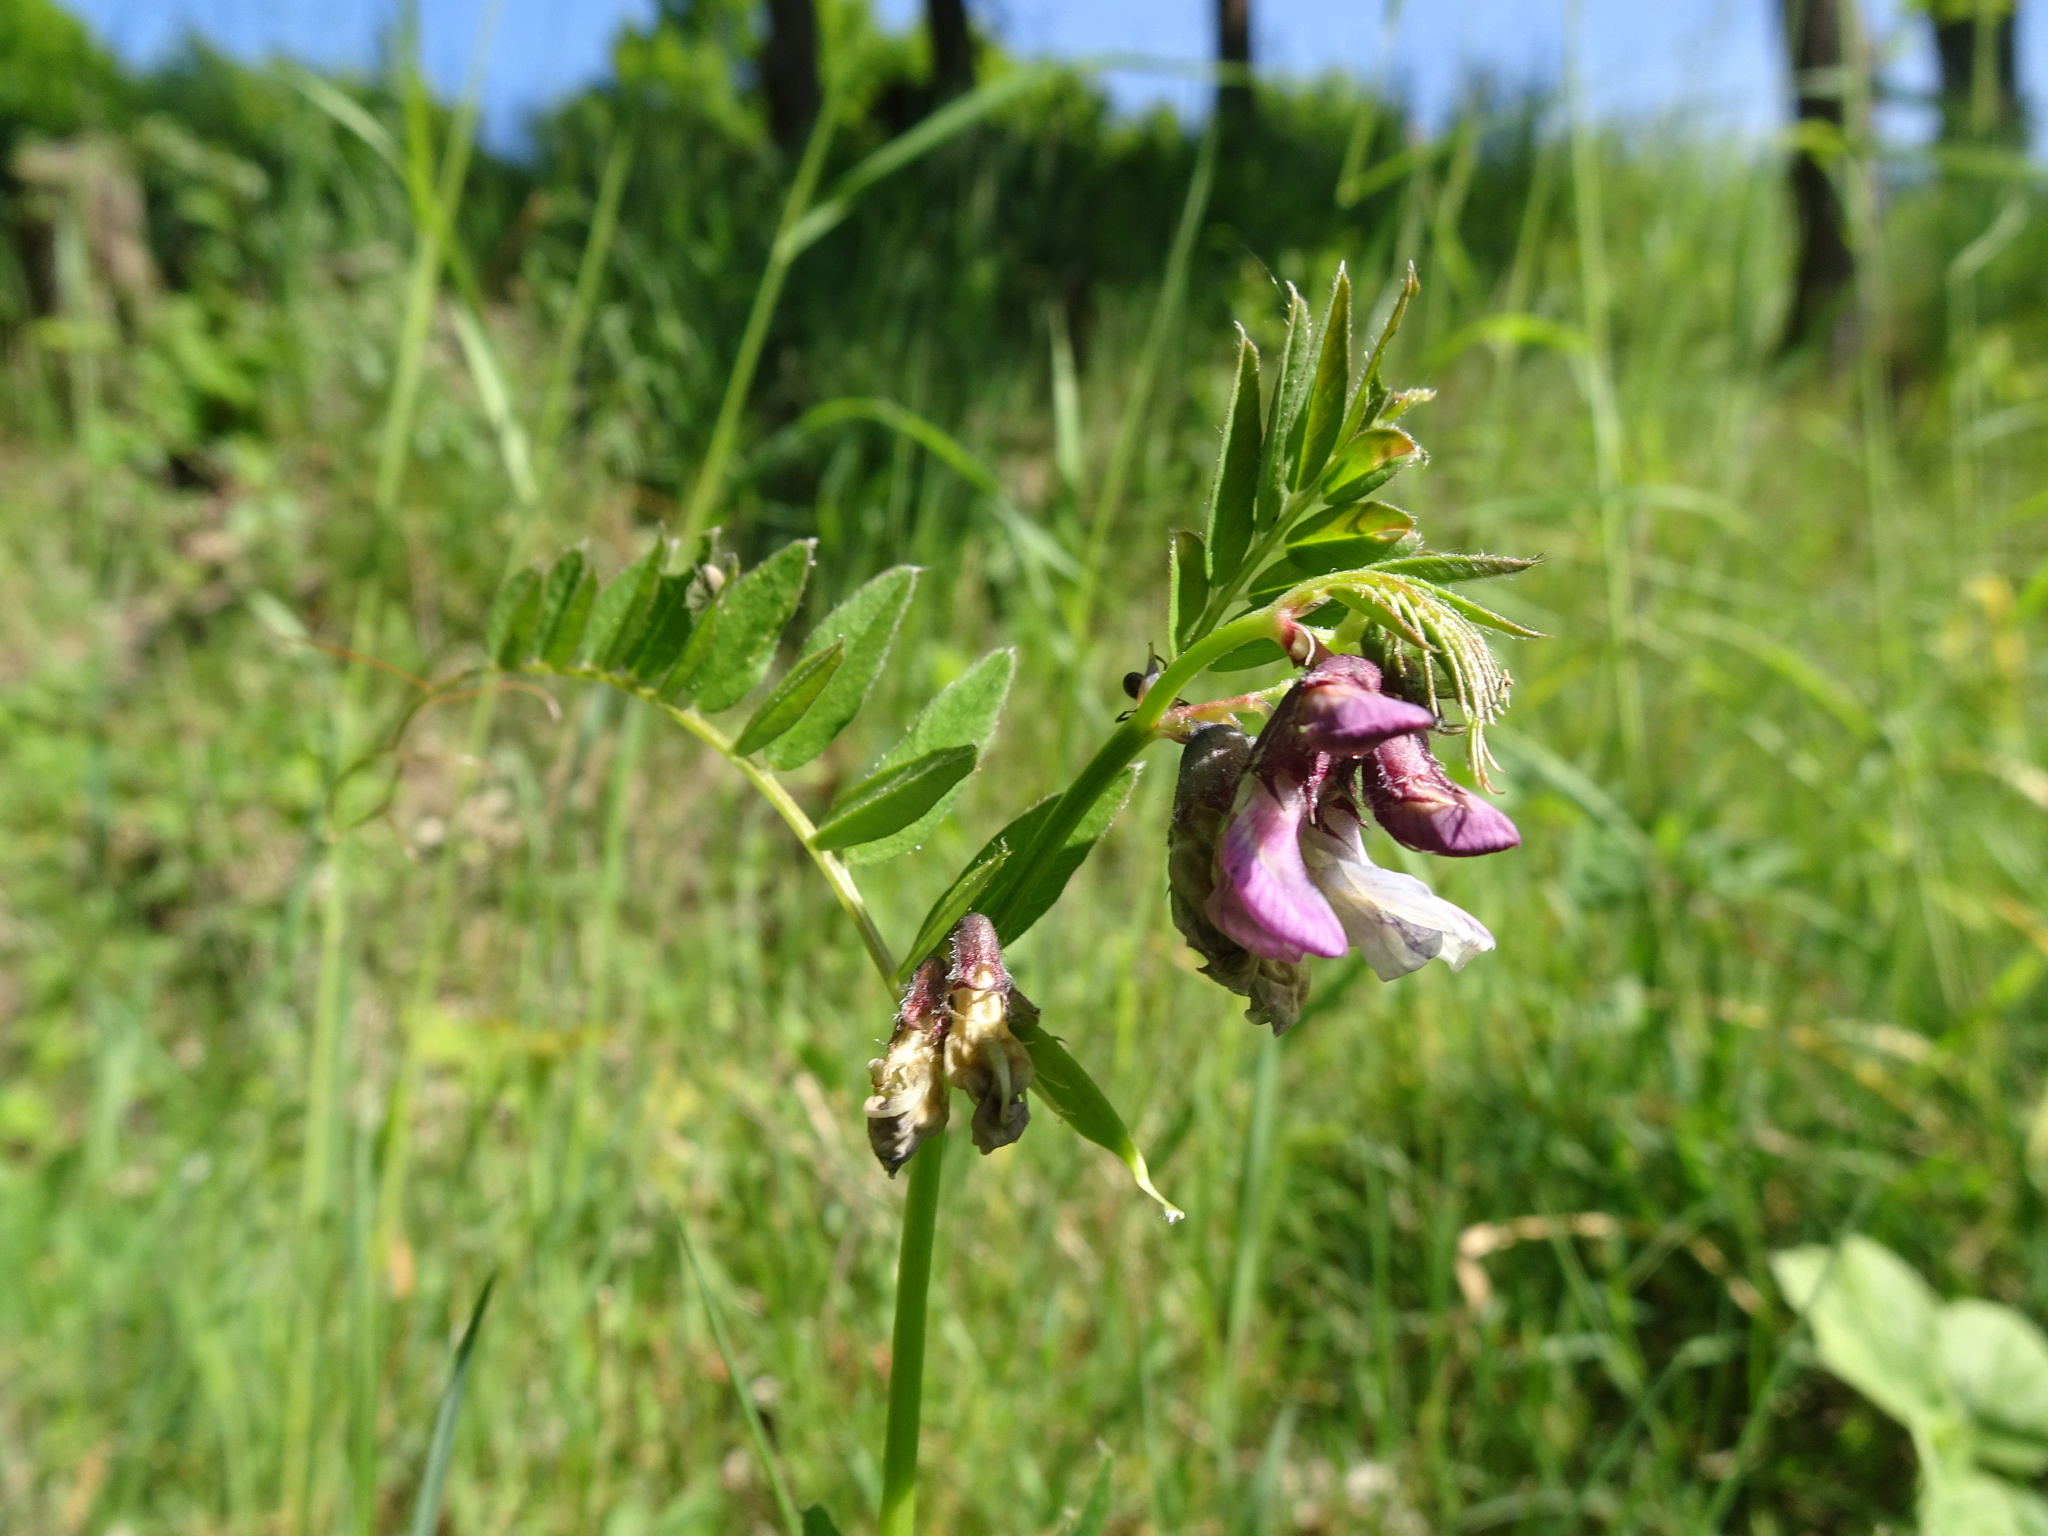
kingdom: Plantae
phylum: Tracheophyta
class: Magnoliopsida
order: Fabales
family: Fabaceae
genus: Vicia
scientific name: Vicia sepium
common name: Bush vetch
